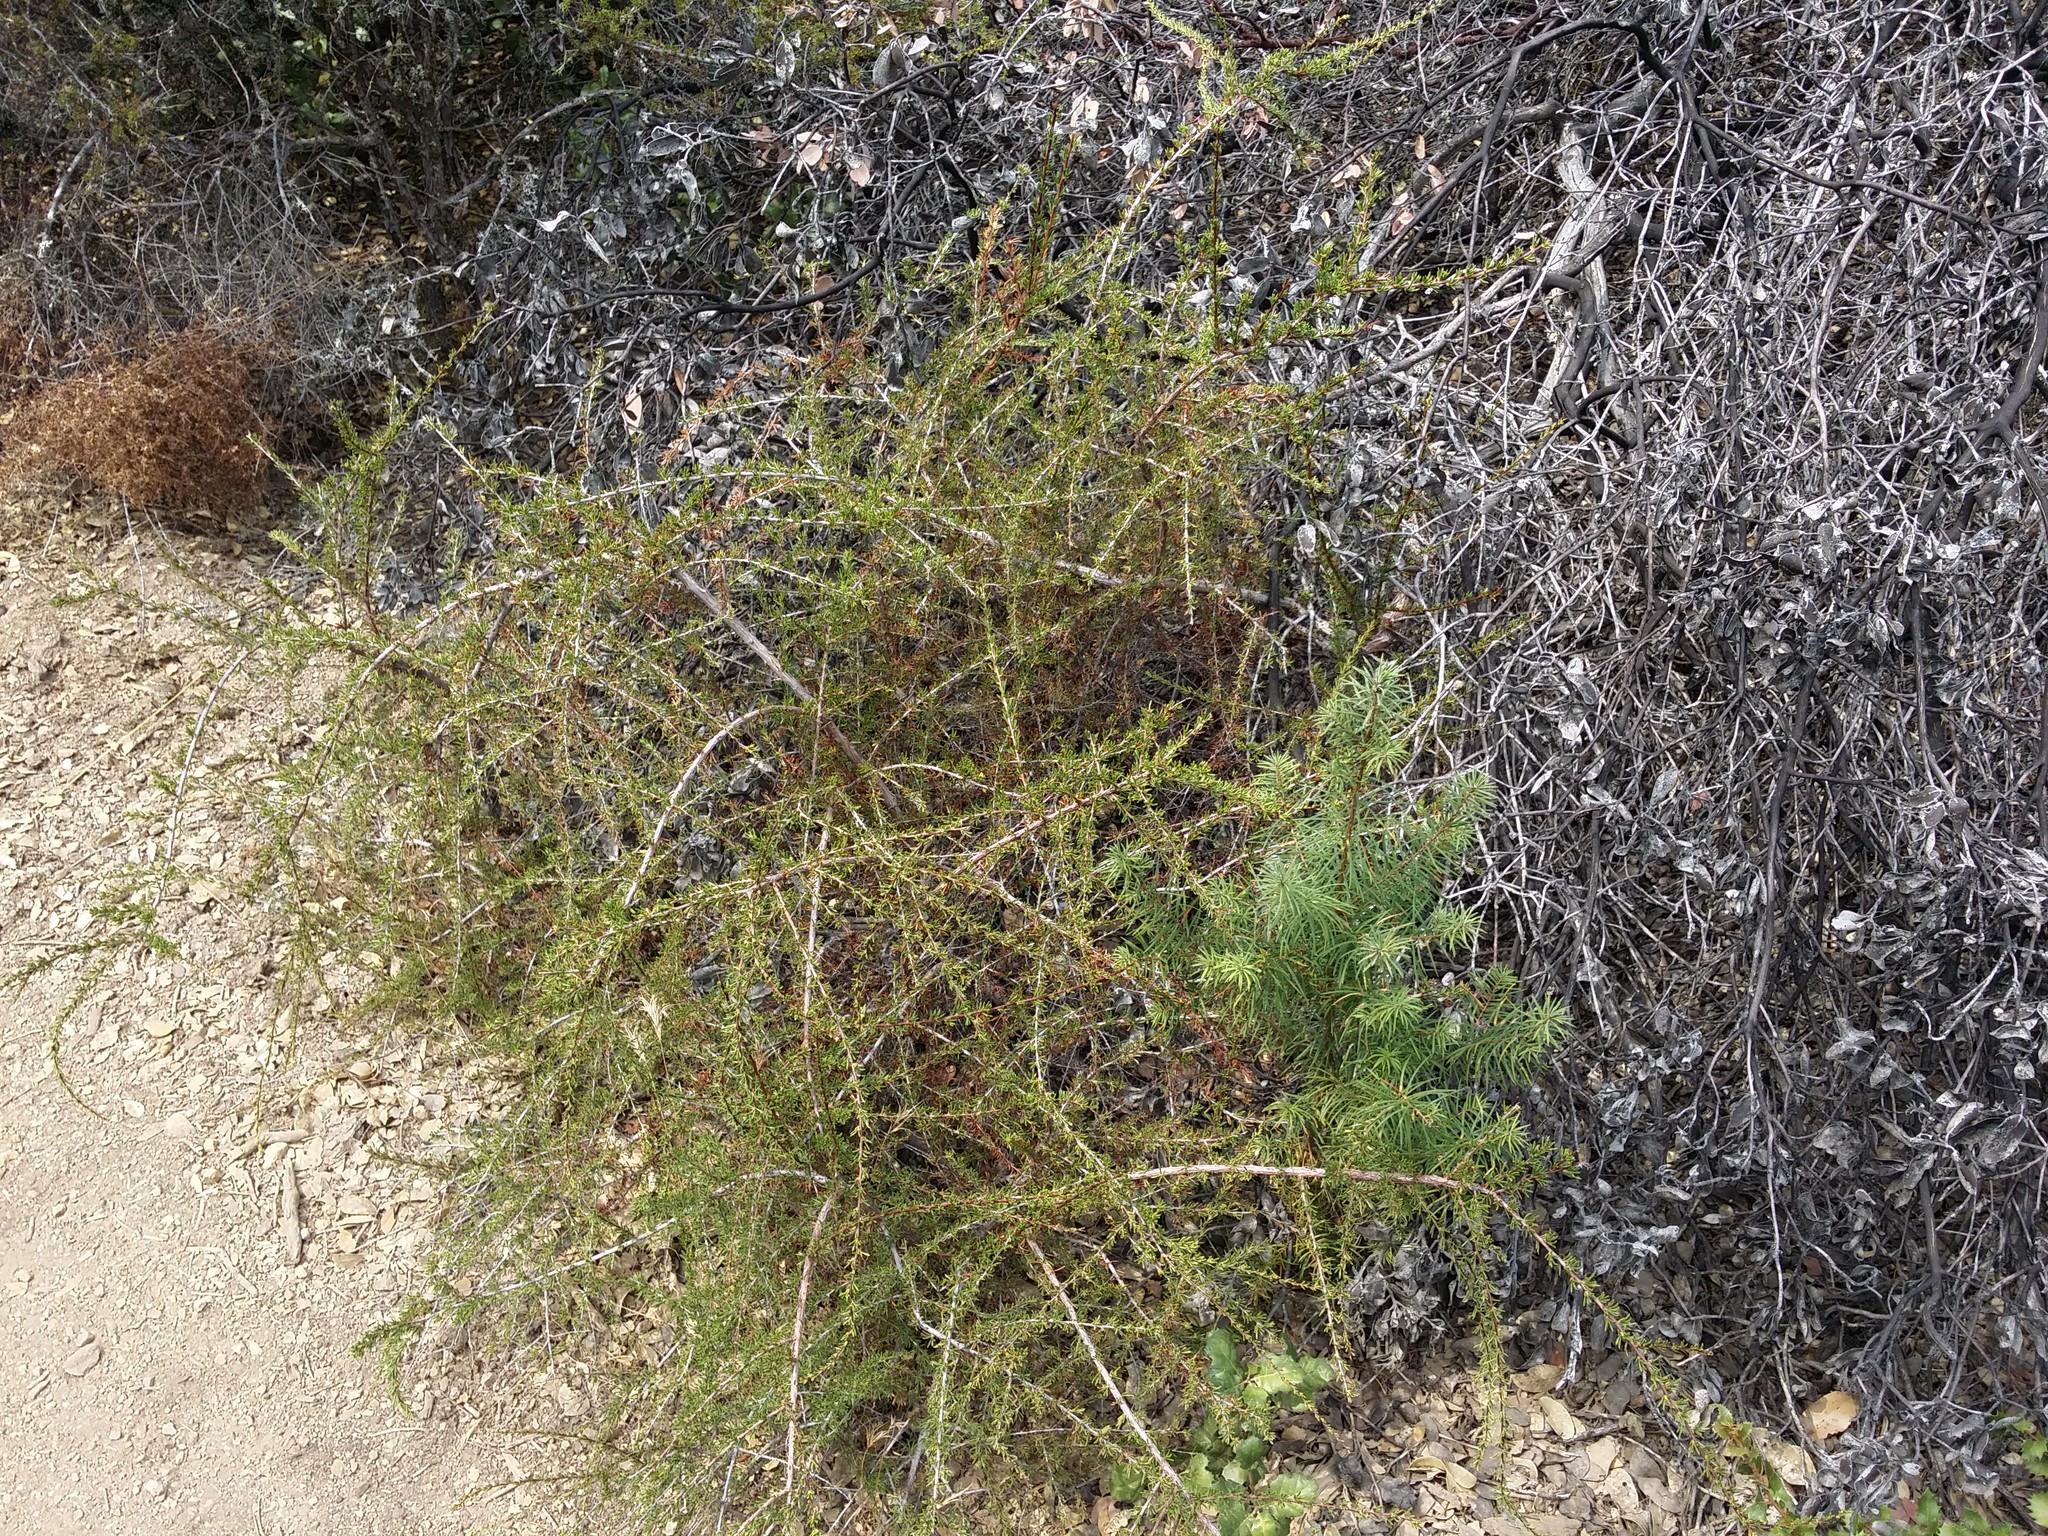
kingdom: Plantae
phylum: Tracheophyta
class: Magnoliopsida
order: Rosales
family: Rosaceae
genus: Adenostoma
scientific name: Adenostoma fasciculatum
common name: Chamise
